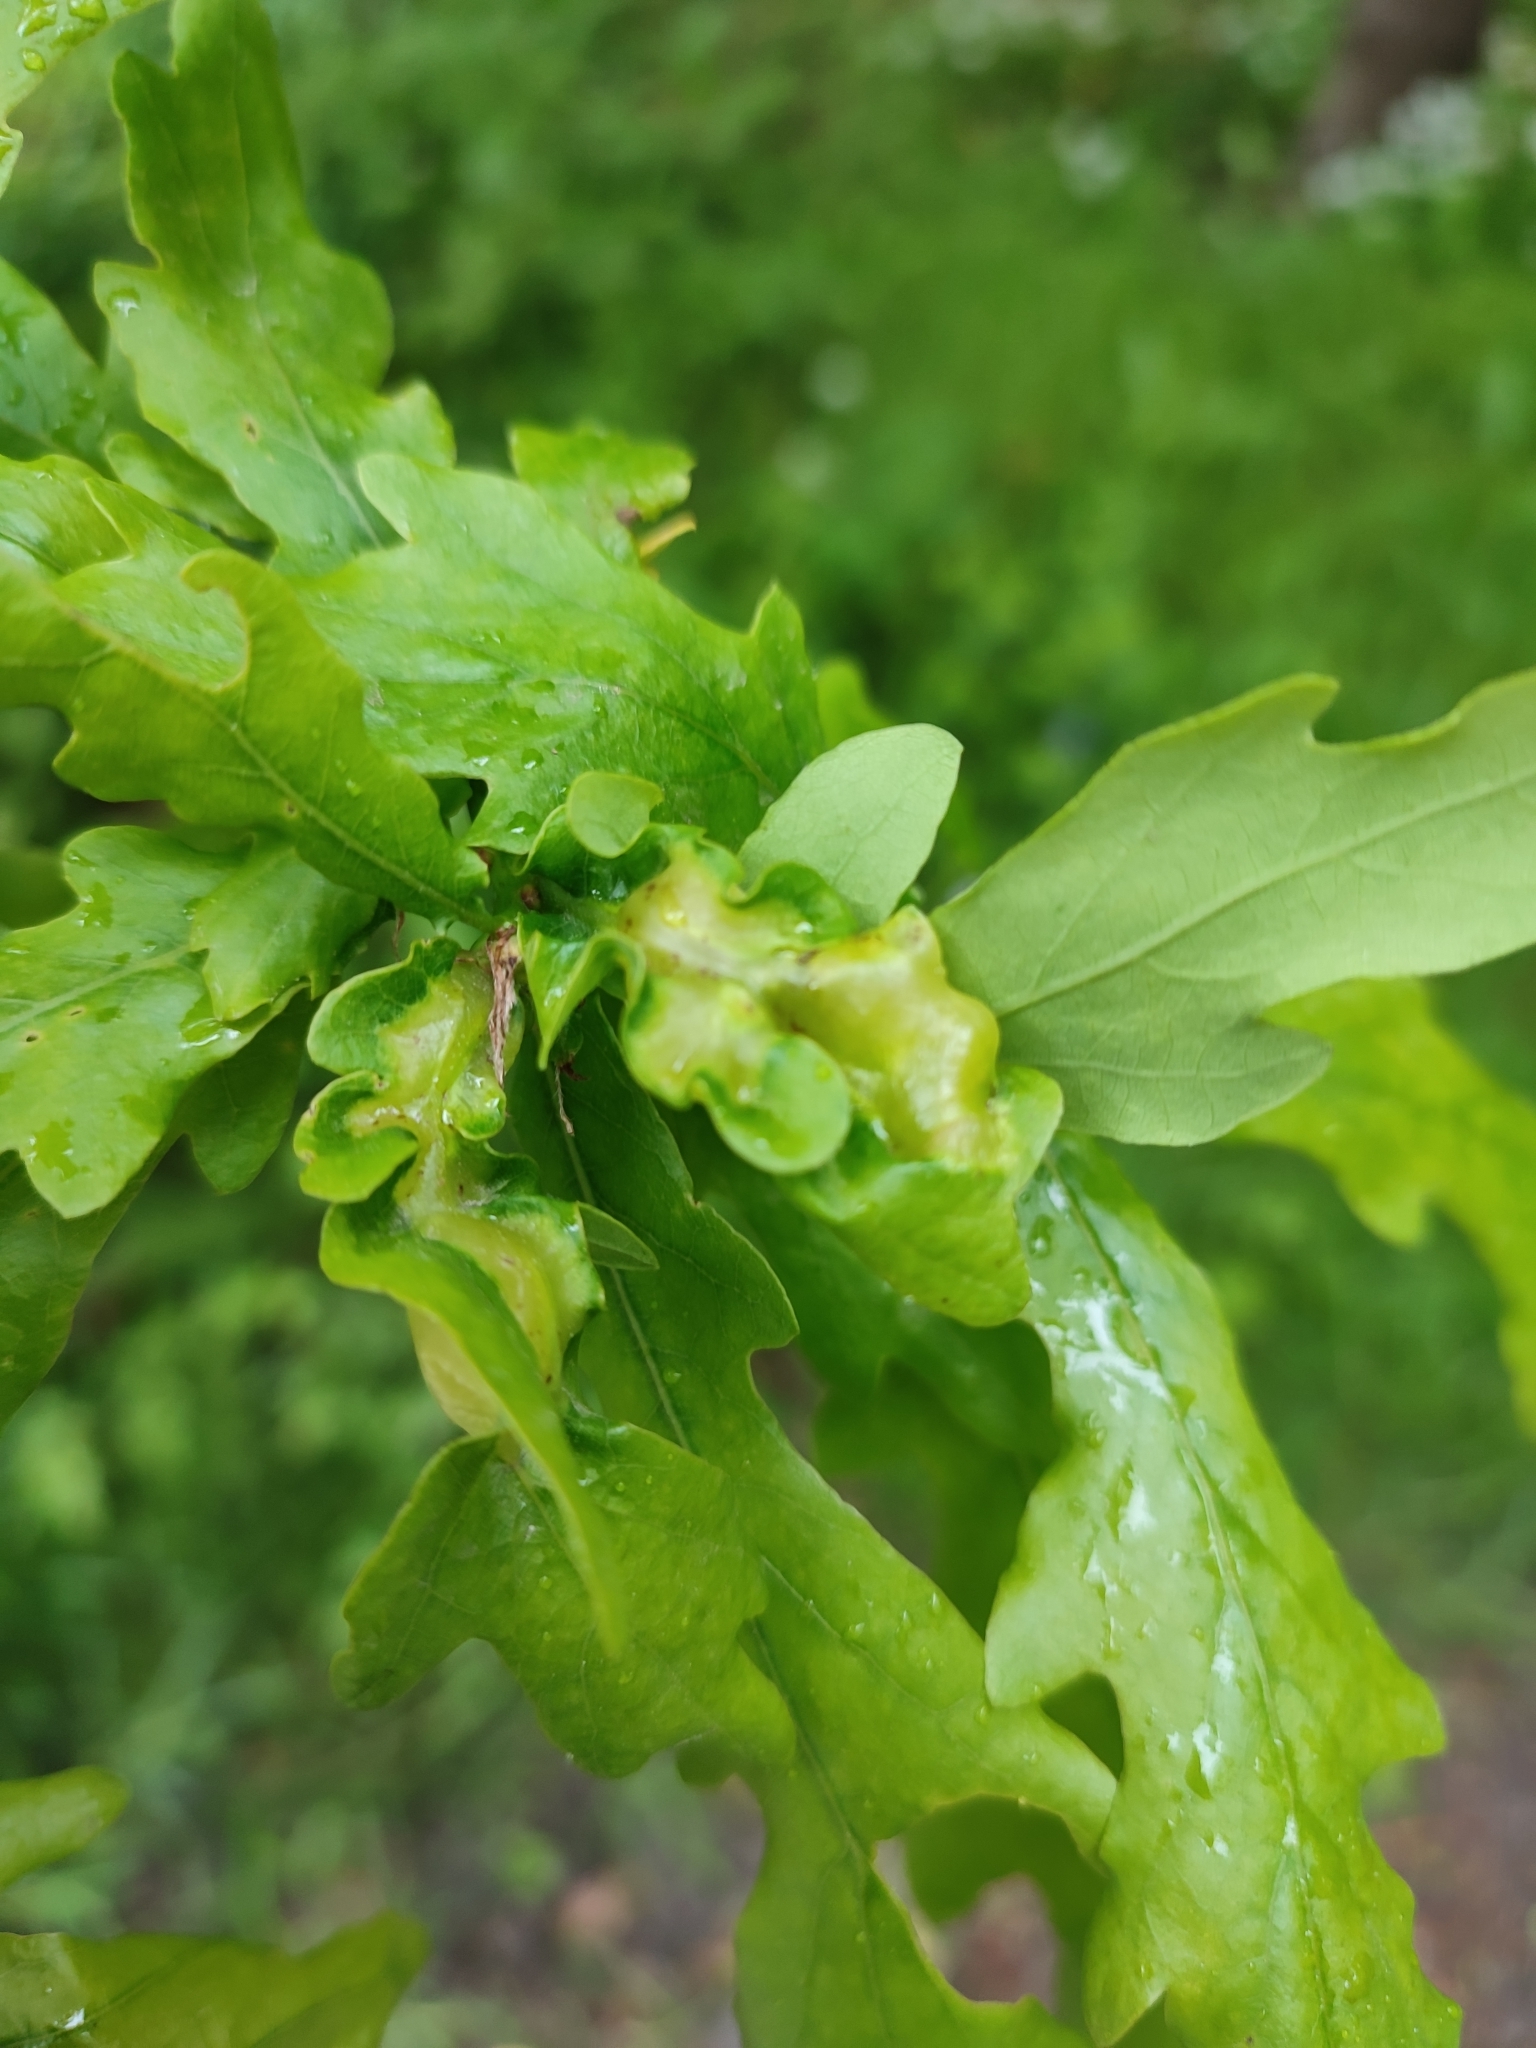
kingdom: Animalia
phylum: Arthropoda
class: Insecta
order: Hymenoptera
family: Cynipidae
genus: Andricus
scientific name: Andricus curvator
